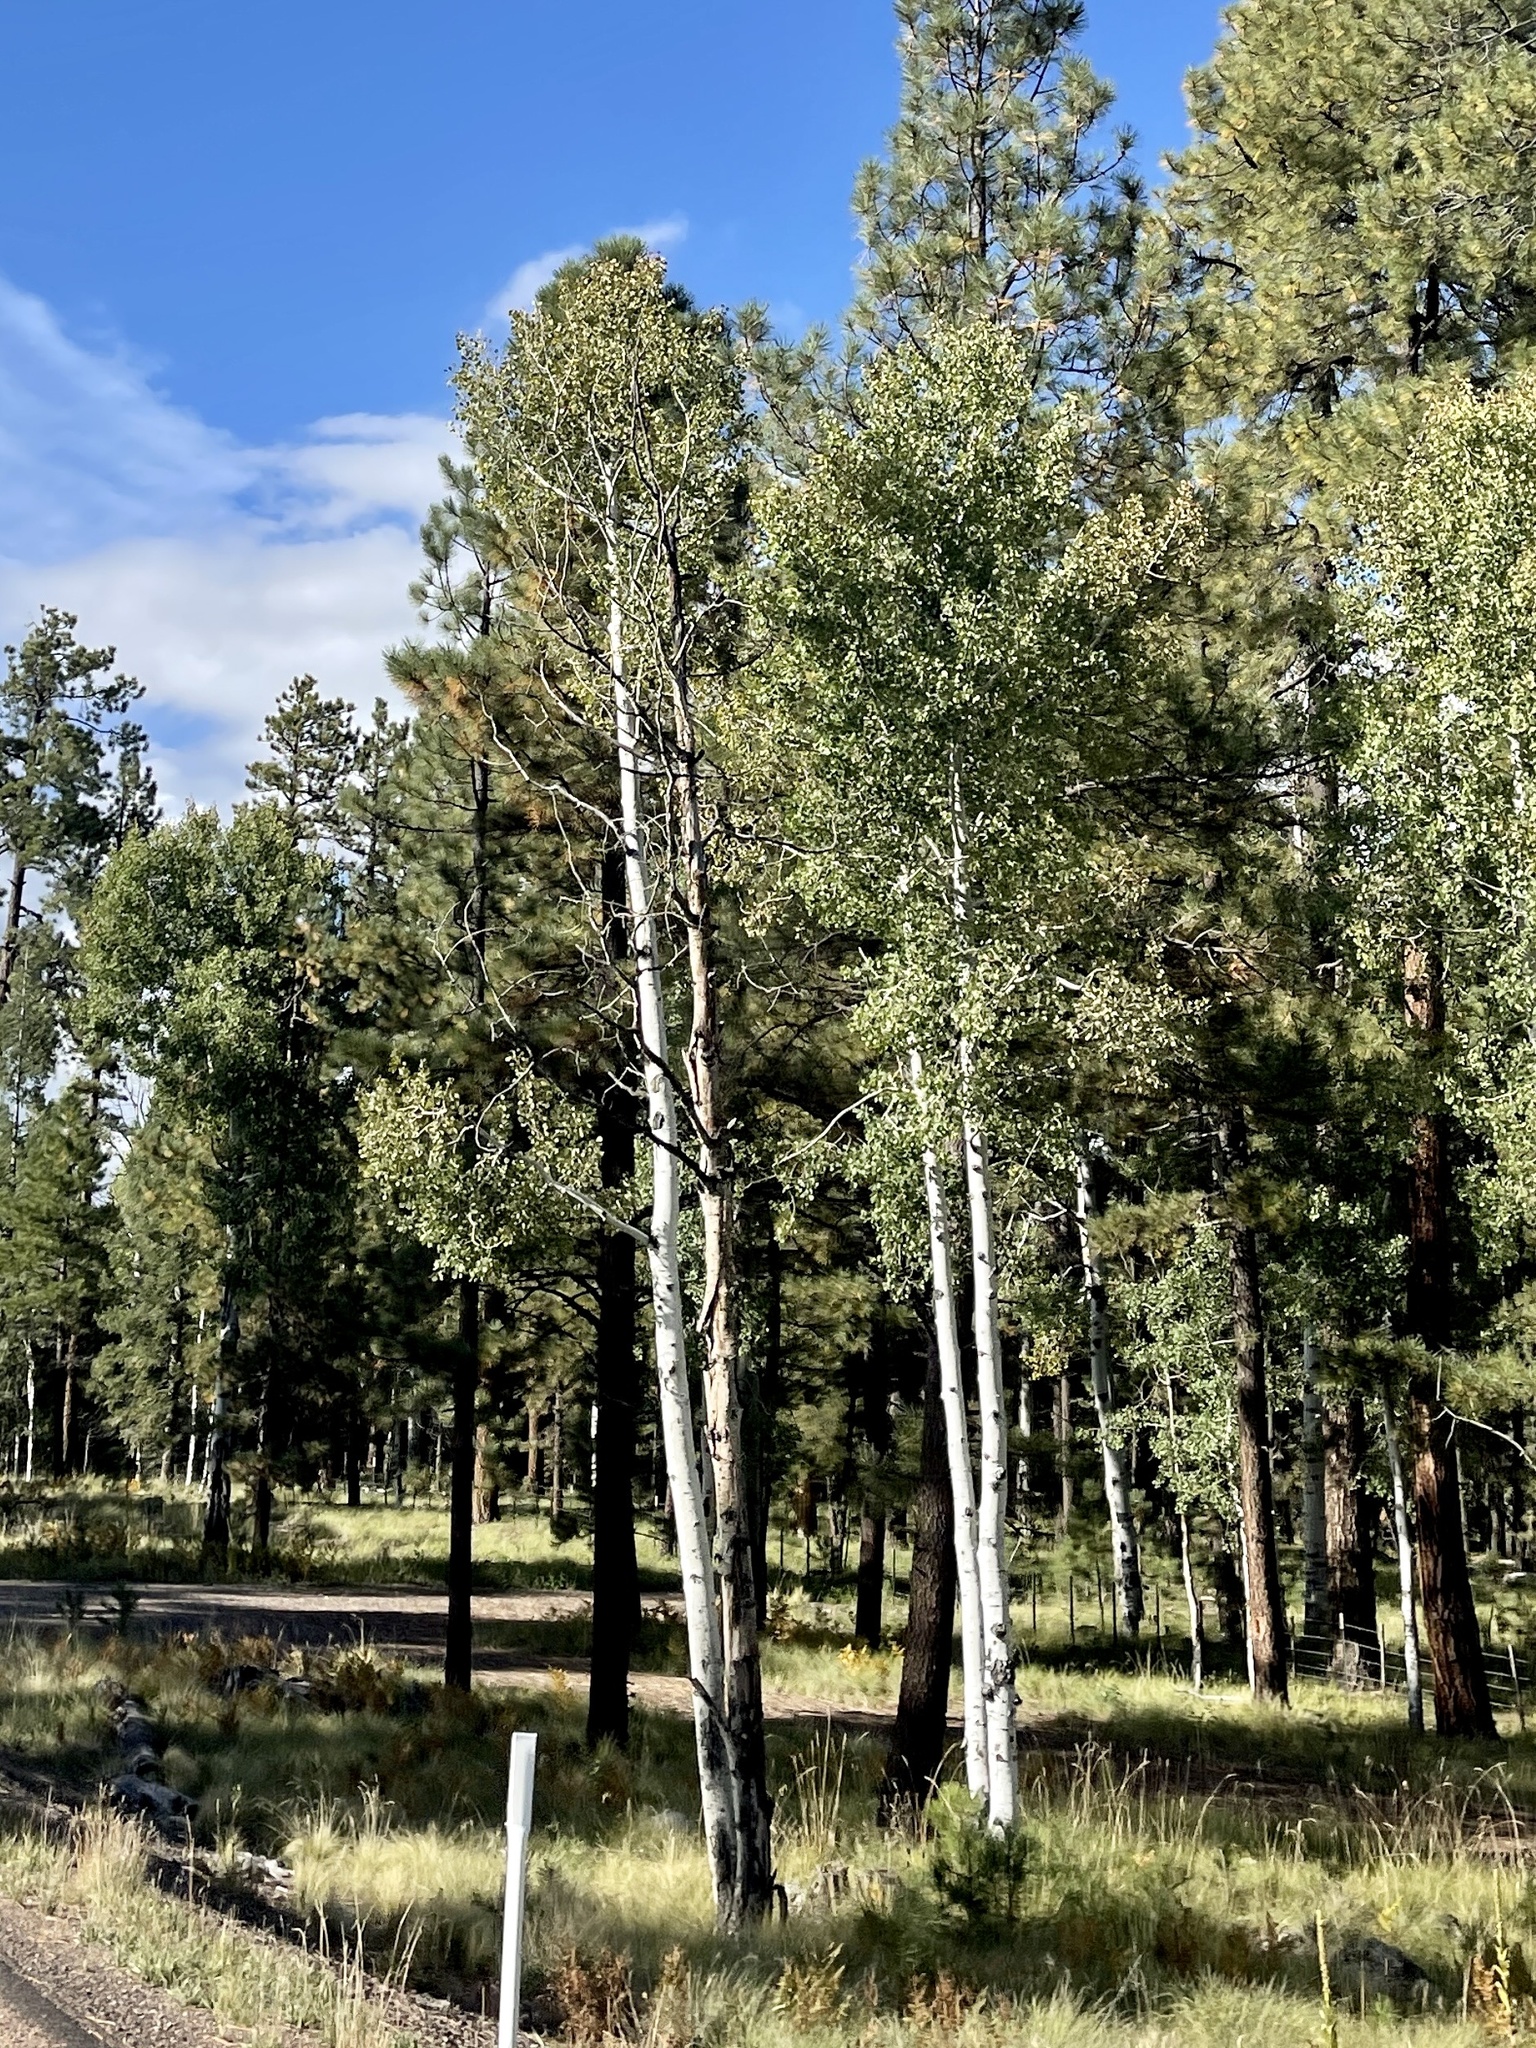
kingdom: Plantae
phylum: Tracheophyta
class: Magnoliopsida
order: Malpighiales
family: Salicaceae
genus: Populus
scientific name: Populus tremuloides
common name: Quaking aspen
